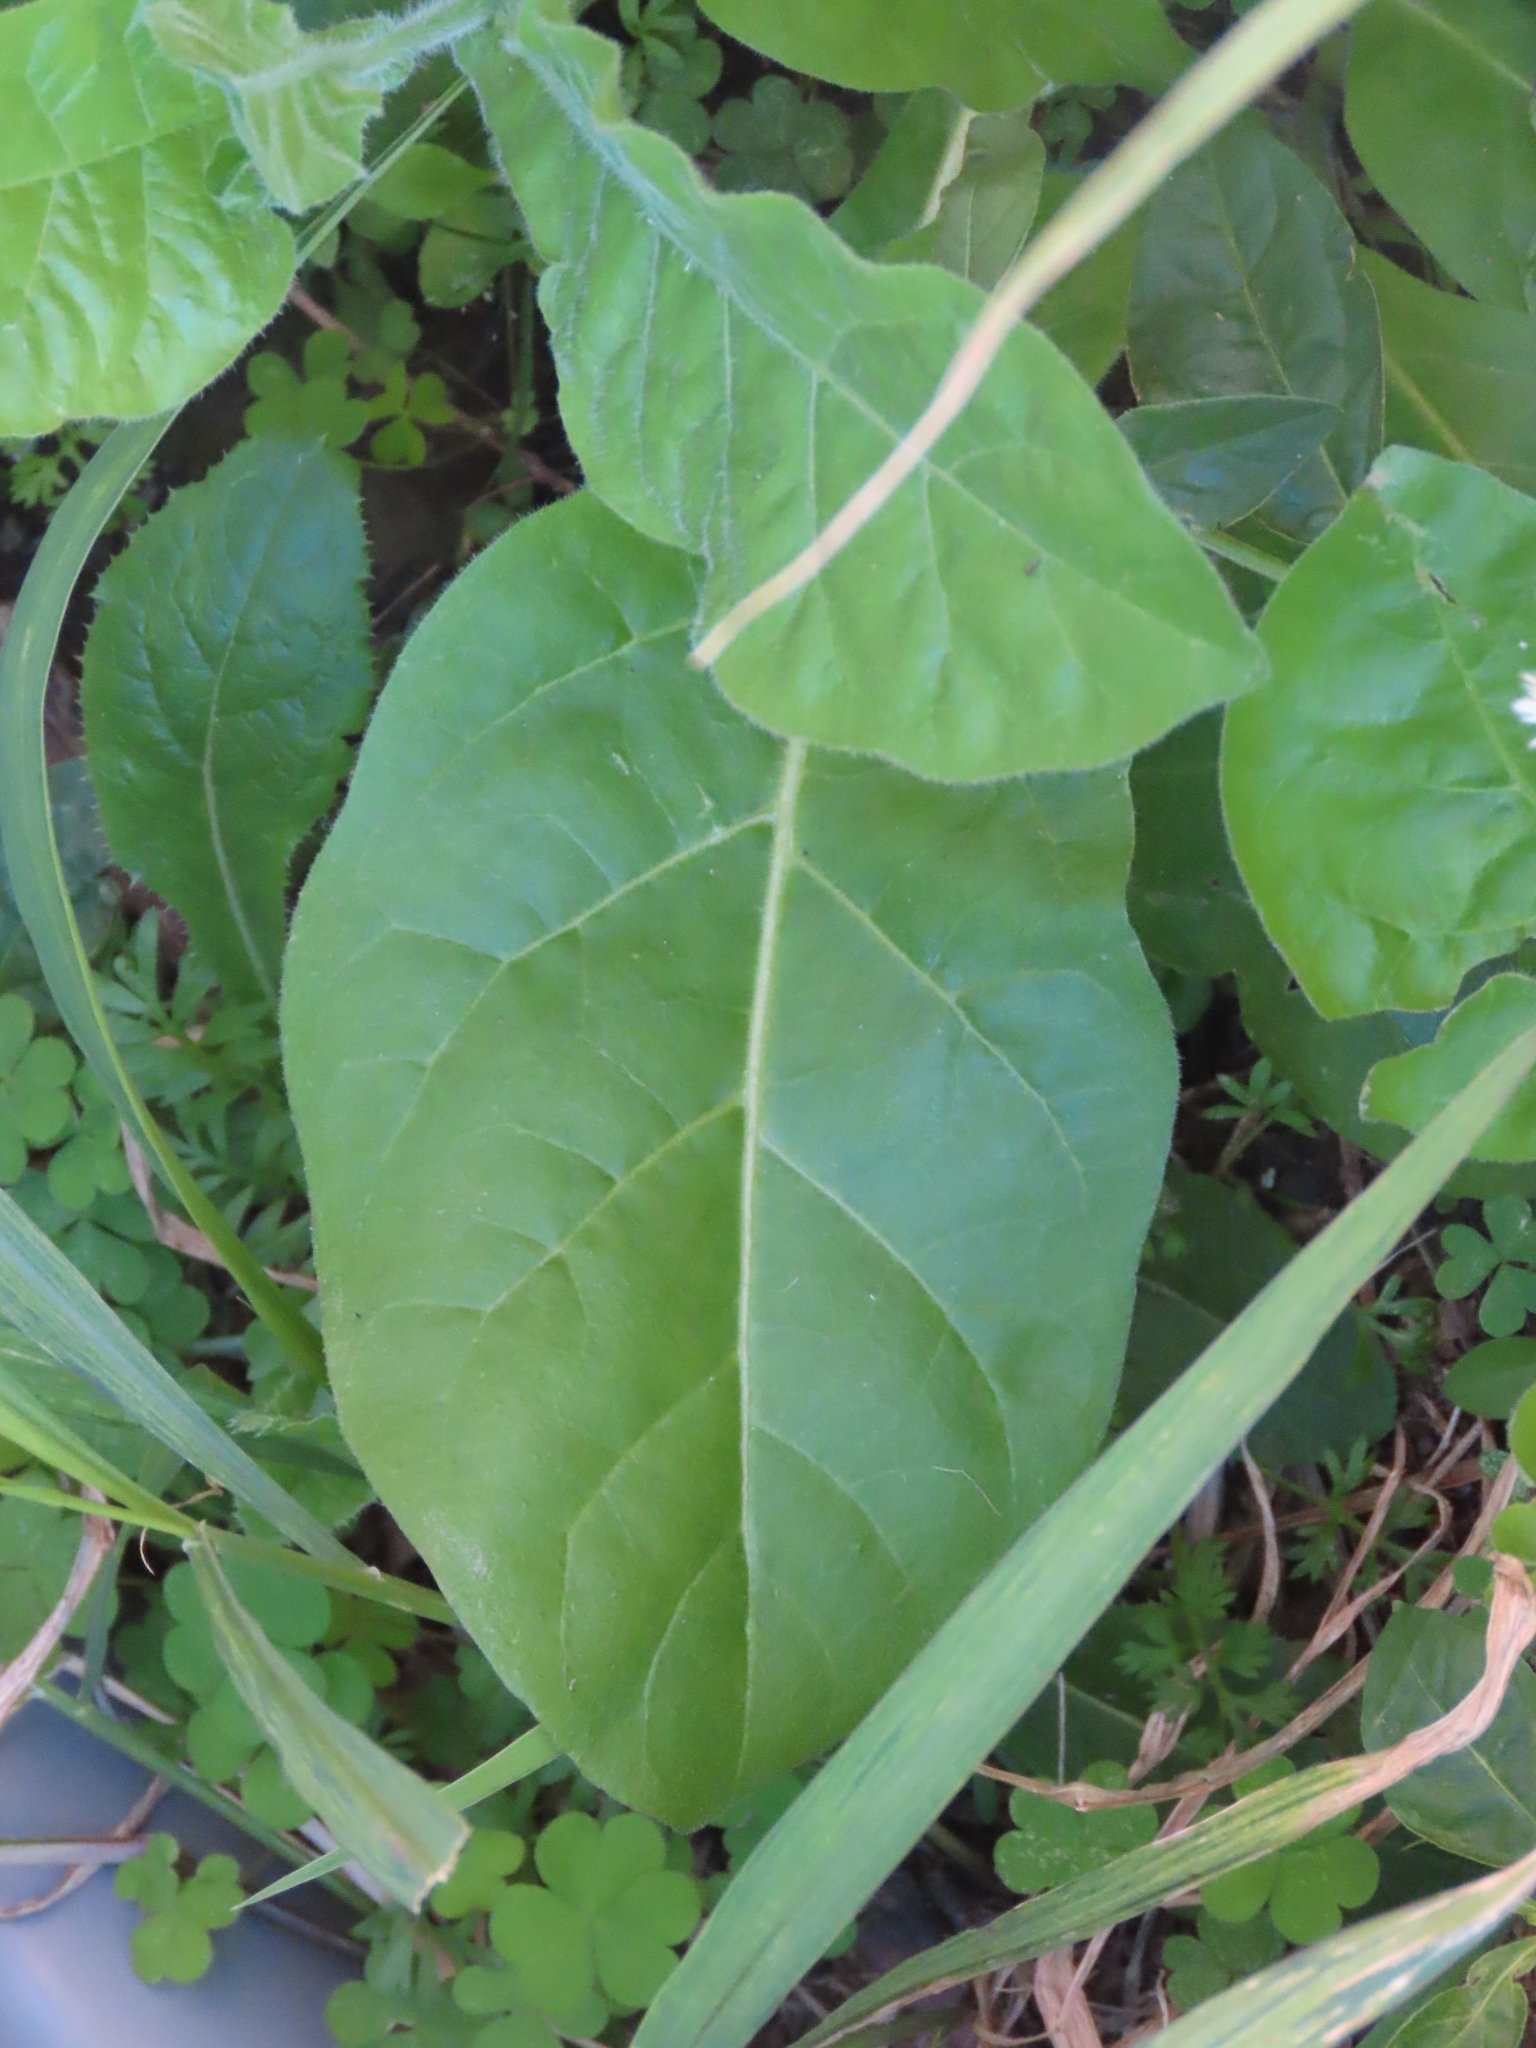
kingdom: Plantae
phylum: Tracheophyta
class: Magnoliopsida
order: Solanales
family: Solanaceae
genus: Nicotiana
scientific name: Nicotiana plumbaginifolia
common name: Tex-mex tobacco
